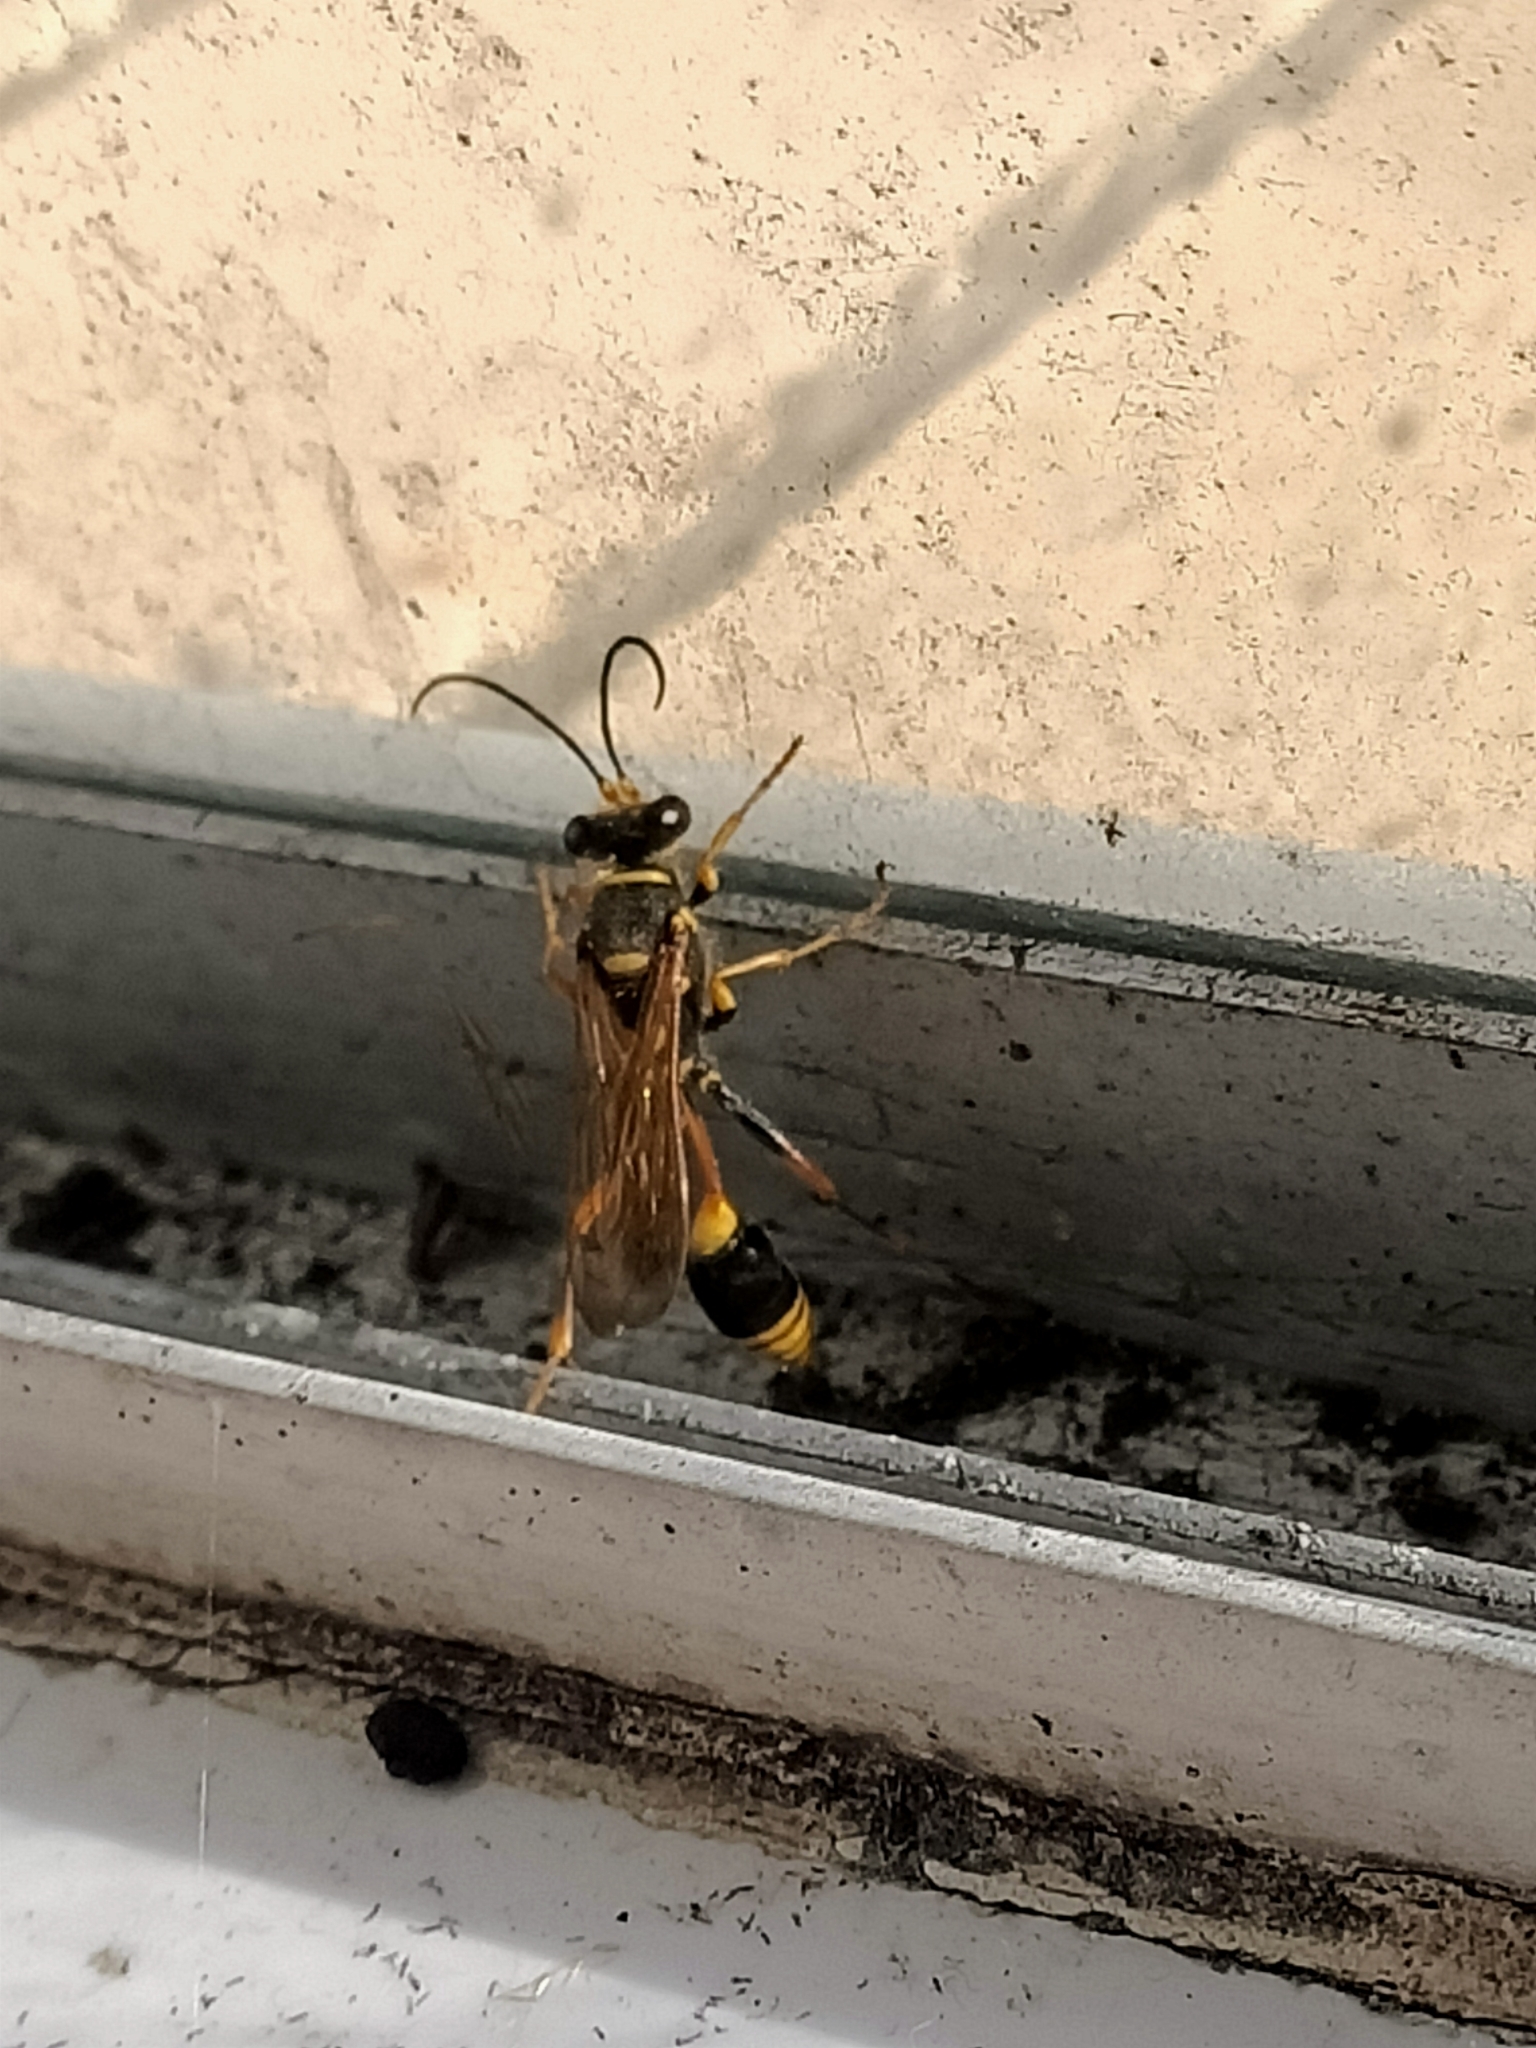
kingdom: Animalia
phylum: Arthropoda
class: Insecta
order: Hymenoptera
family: Sphecidae
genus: Sceliphron
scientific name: Sceliphron formosum
